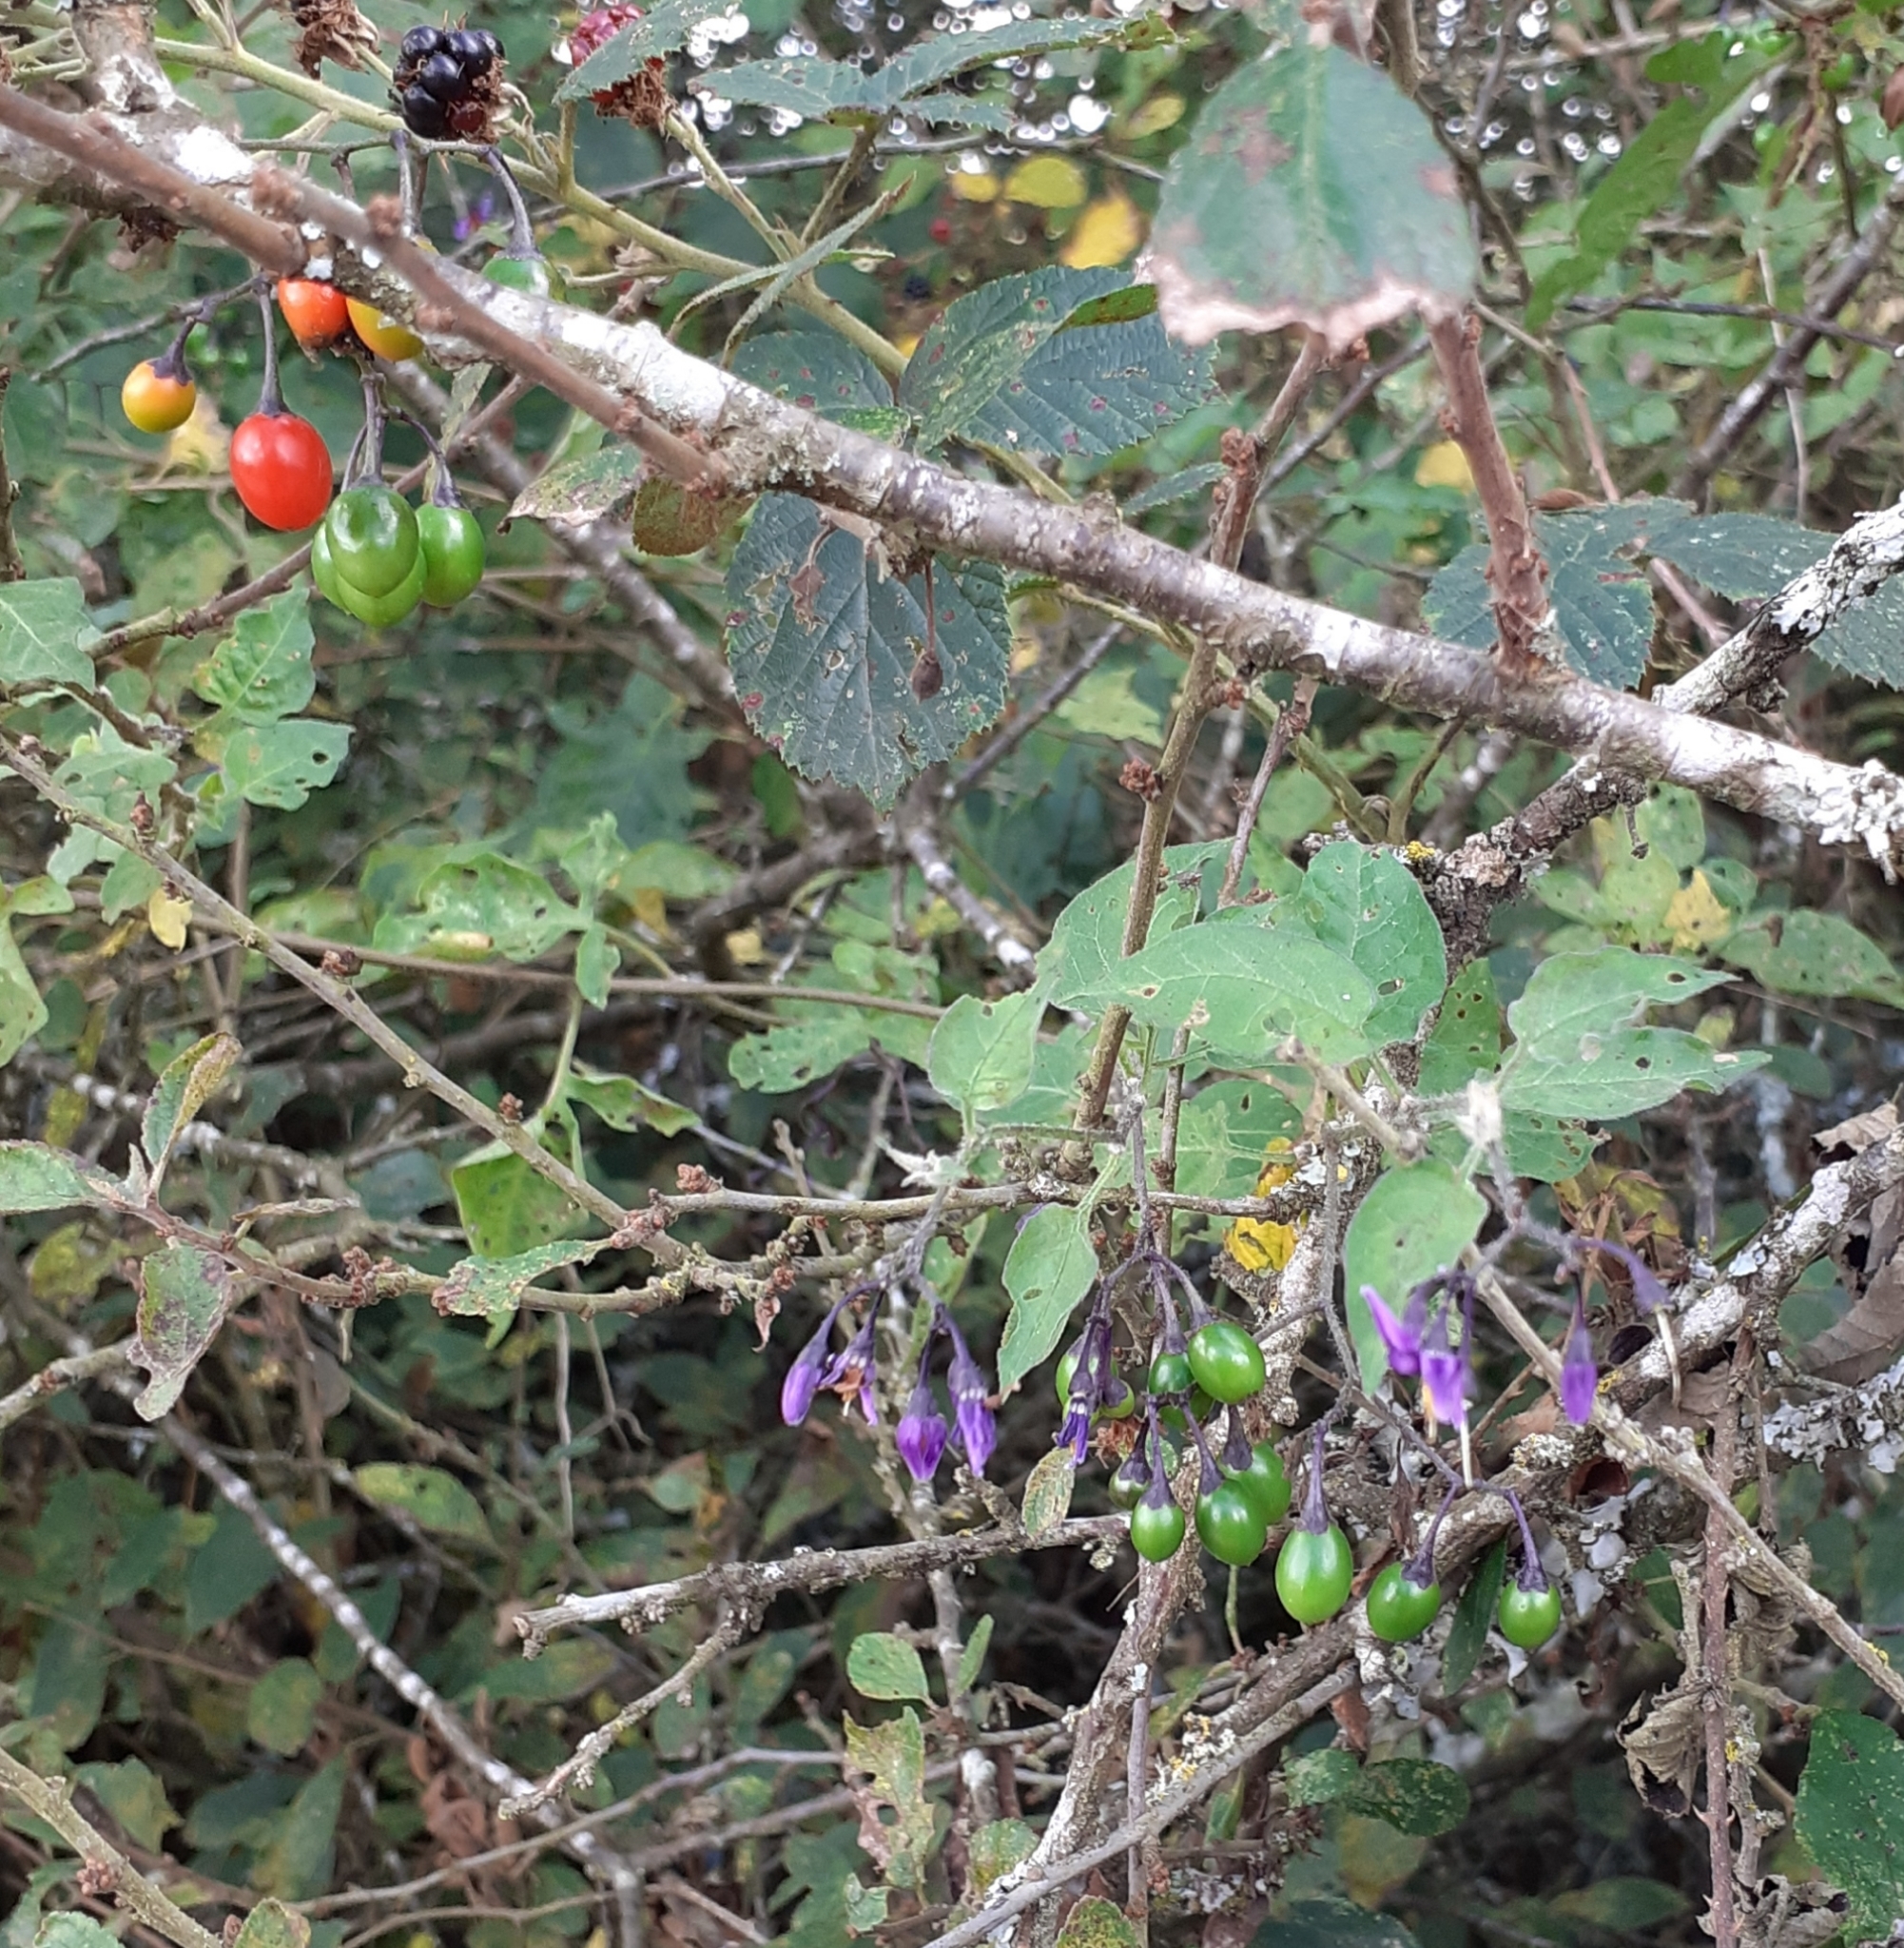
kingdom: Plantae
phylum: Tracheophyta
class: Magnoliopsida
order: Solanales
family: Solanaceae
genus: Solanum
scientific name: Solanum dulcamara
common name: Climbing nightshade
